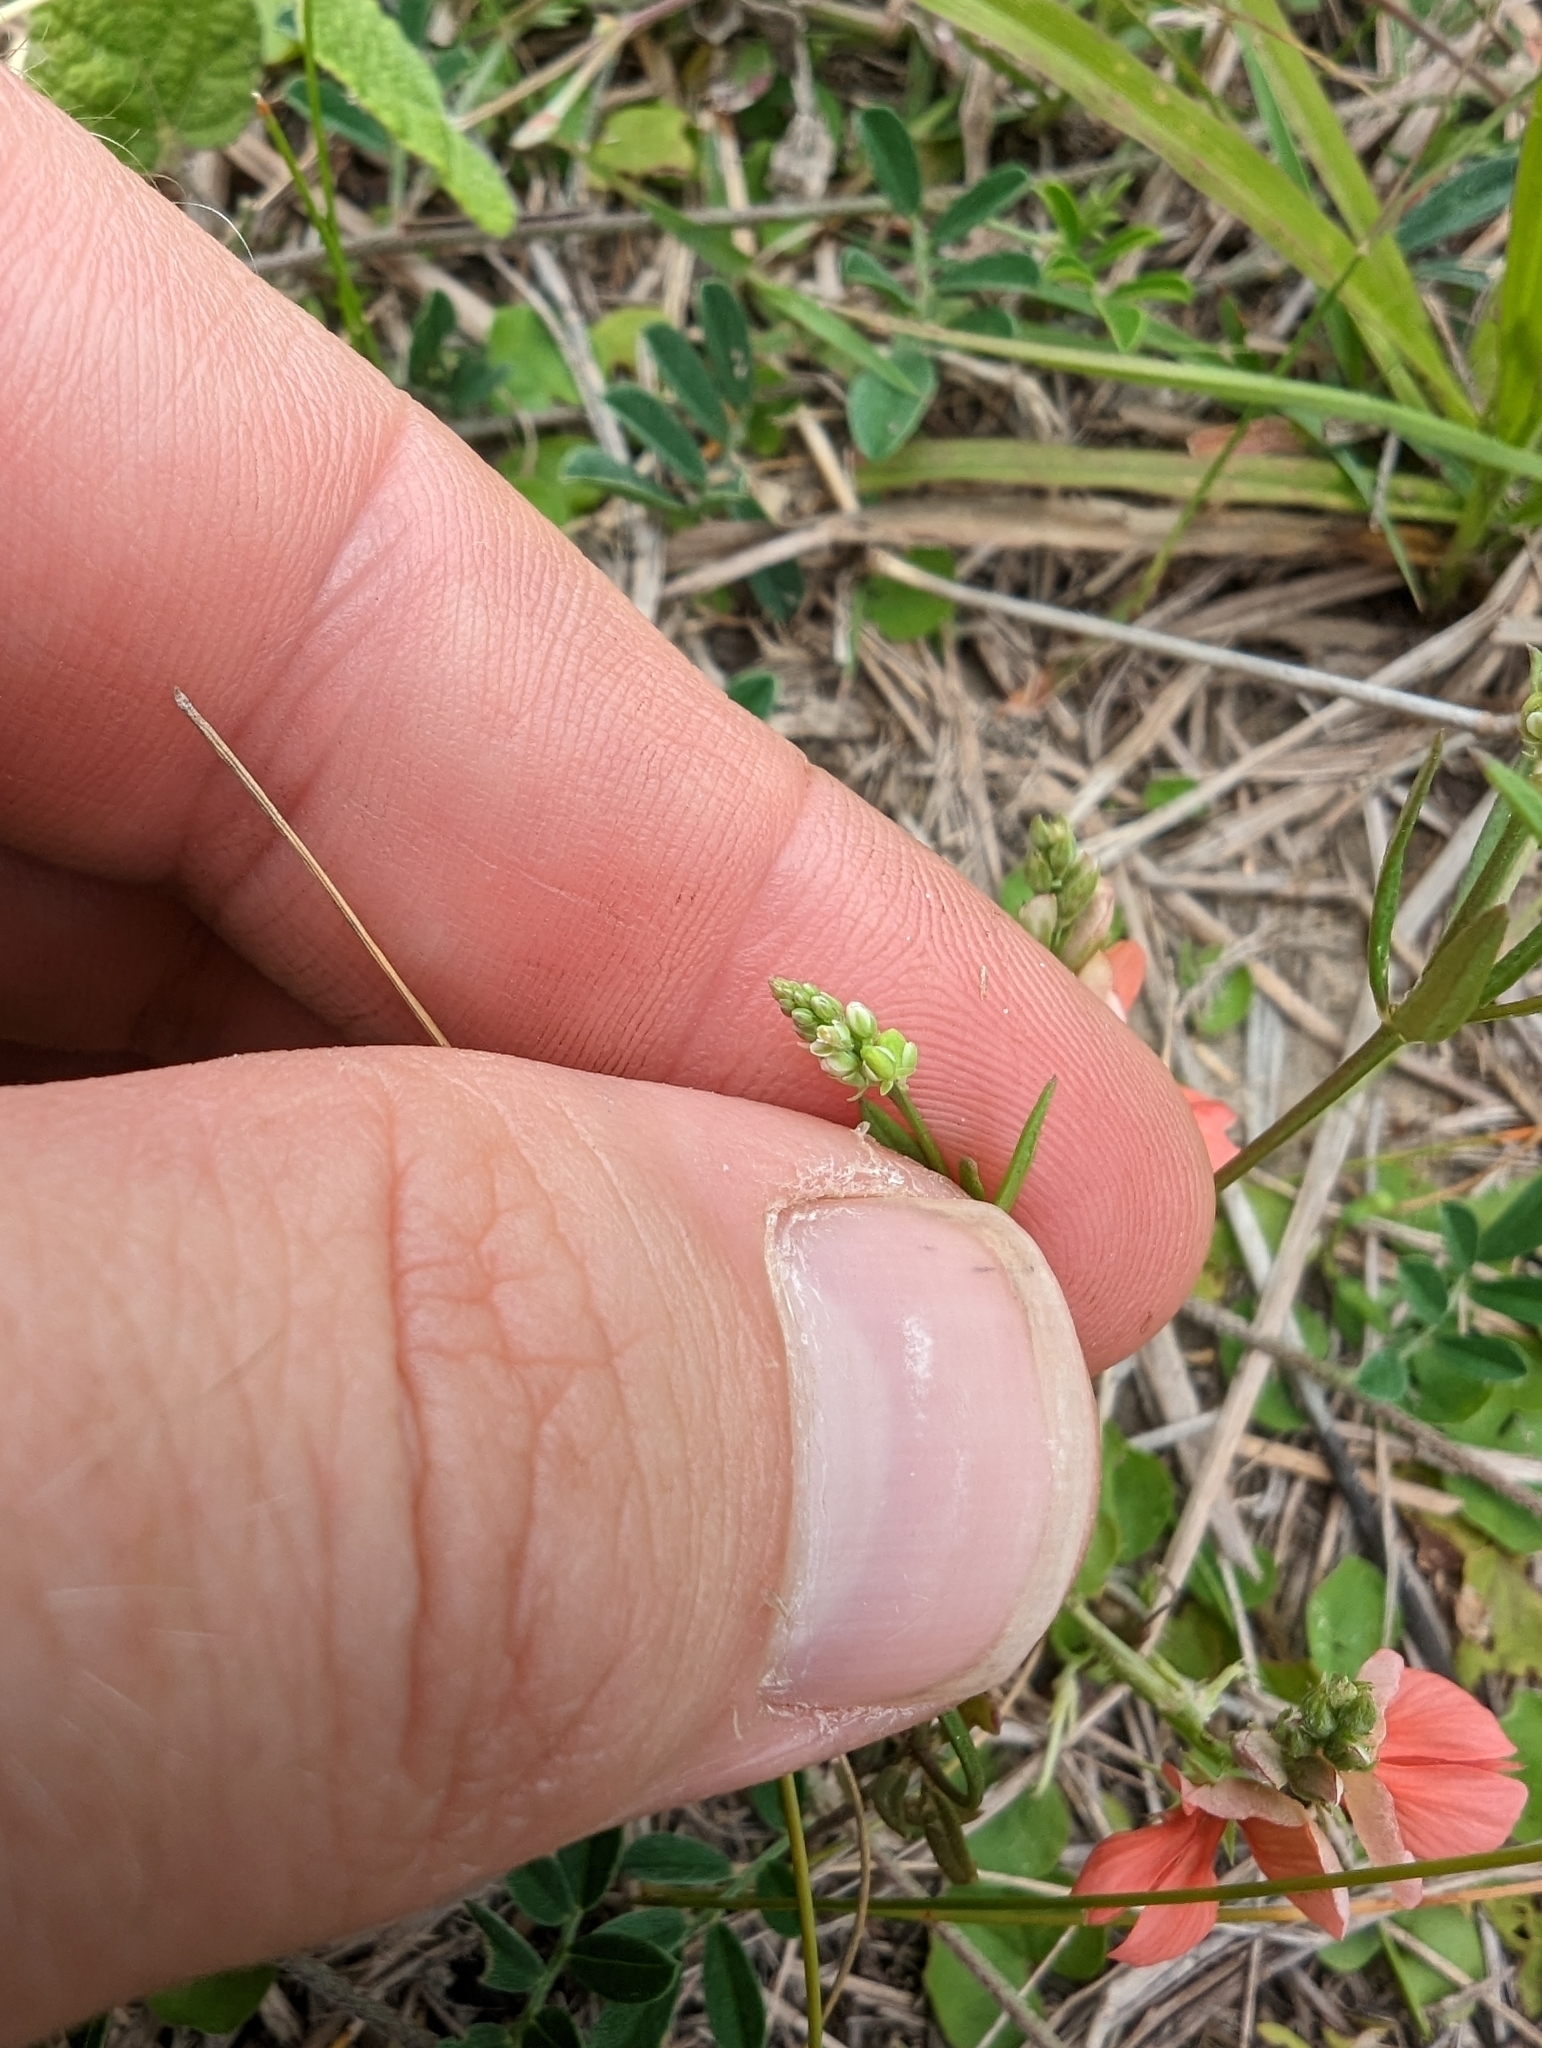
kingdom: Plantae
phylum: Tracheophyta
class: Magnoliopsida
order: Fabales
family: Polygalaceae
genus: Polygala
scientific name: Polygala verticillata
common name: Whorl milkwort
